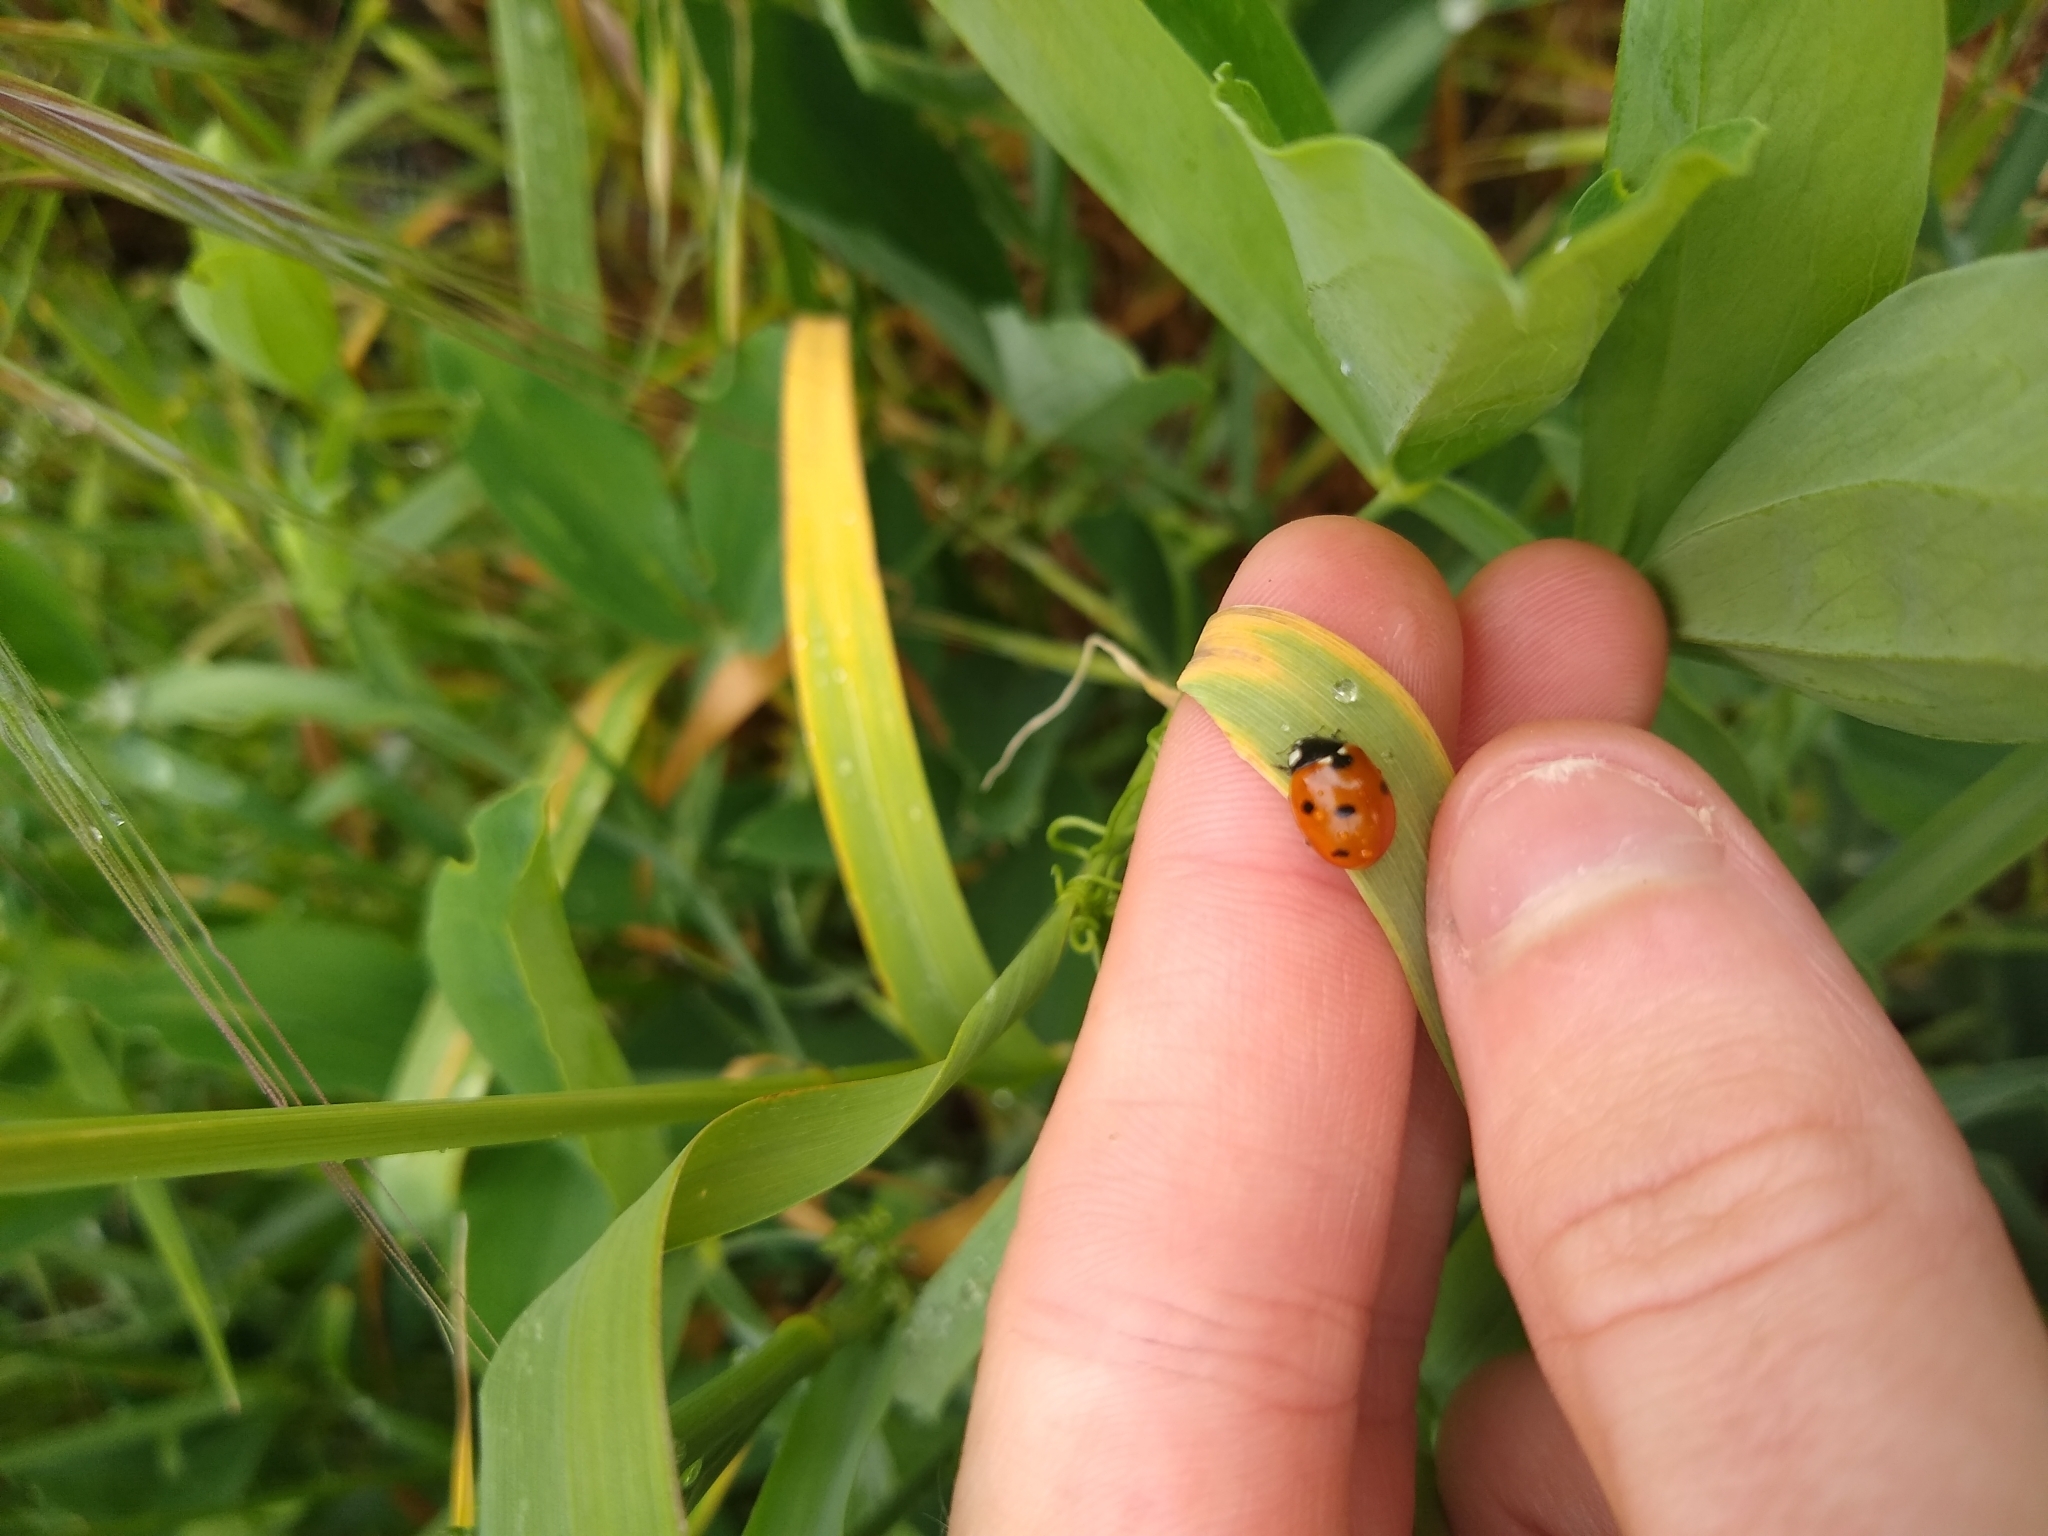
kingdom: Animalia
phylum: Arthropoda
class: Insecta
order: Coleoptera
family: Coccinellidae
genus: Coccinella
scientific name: Coccinella septempunctata
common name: Sevenspotted lady beetle
